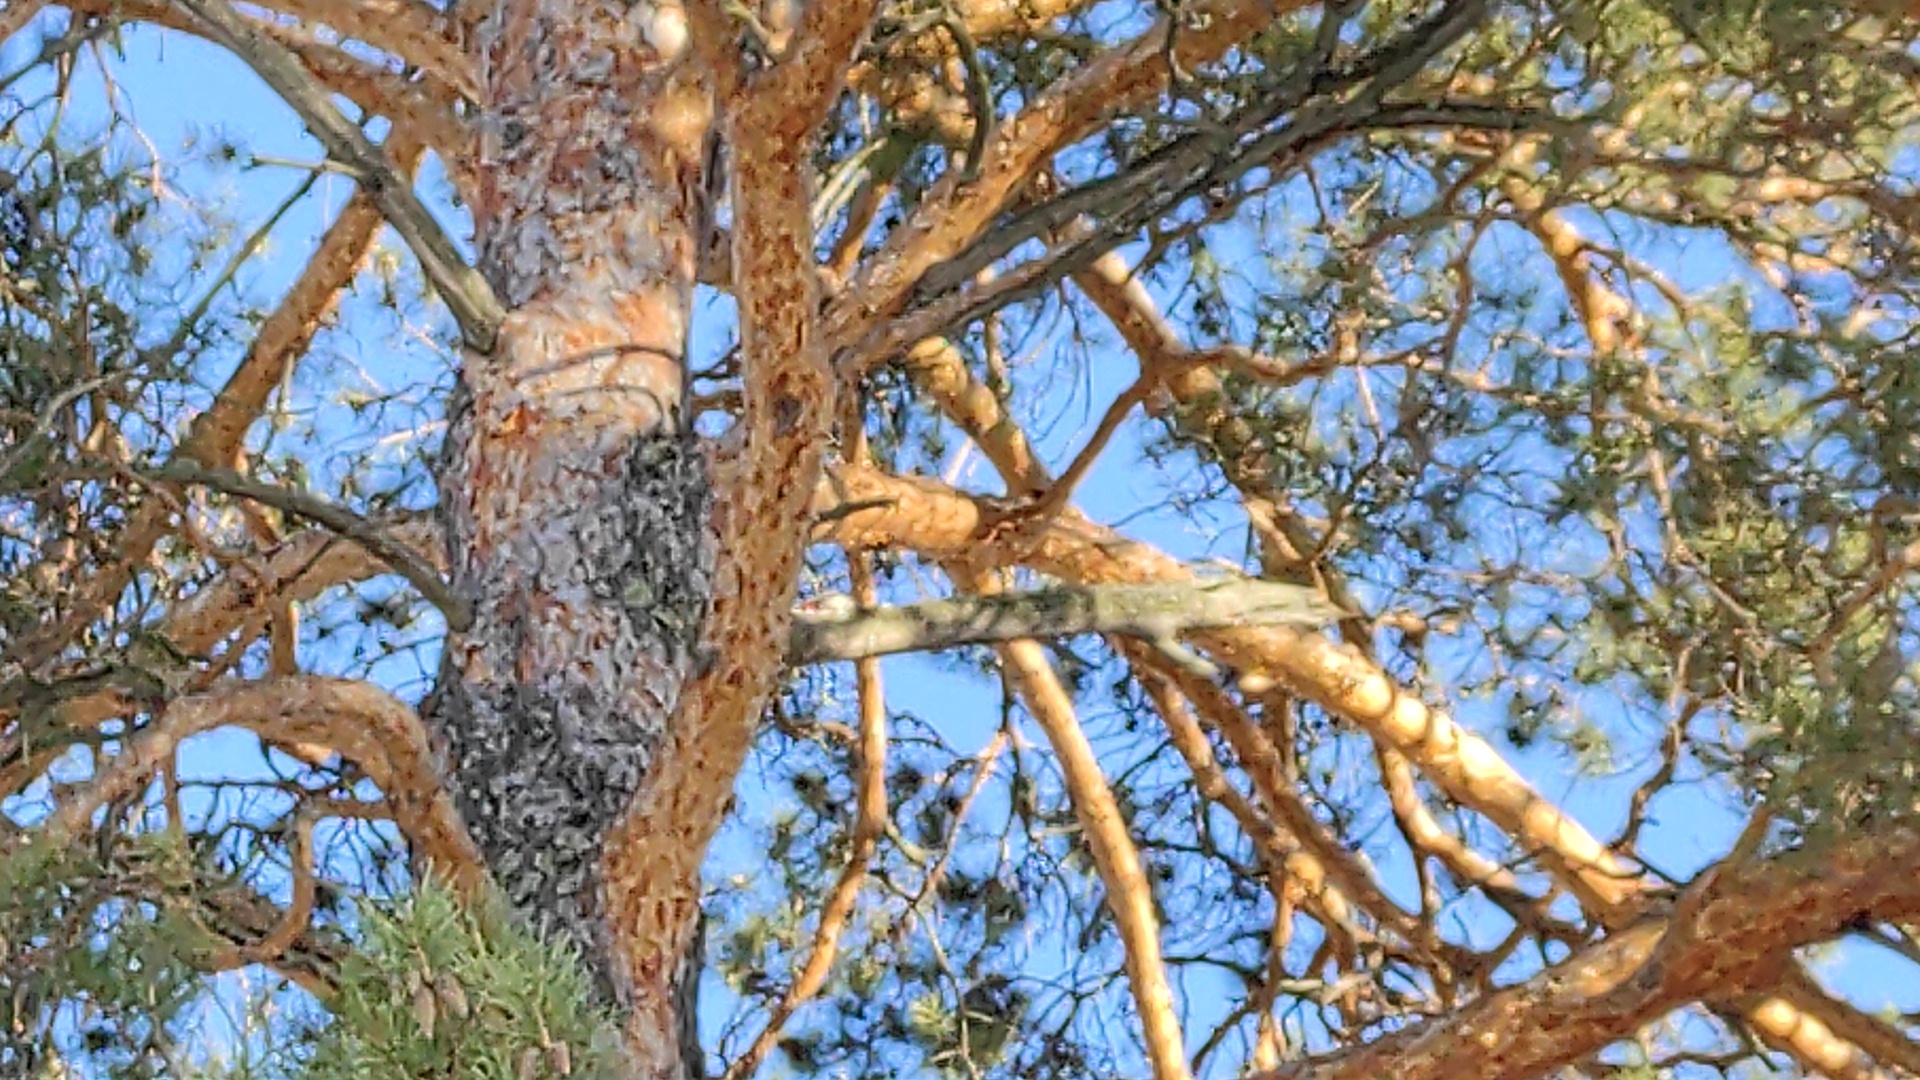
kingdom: Animalia
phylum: Chordata
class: Aves
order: Piciformes
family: Picidae
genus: Dendrocopos
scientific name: Dendrocopos major
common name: Great spotted woodpecker
